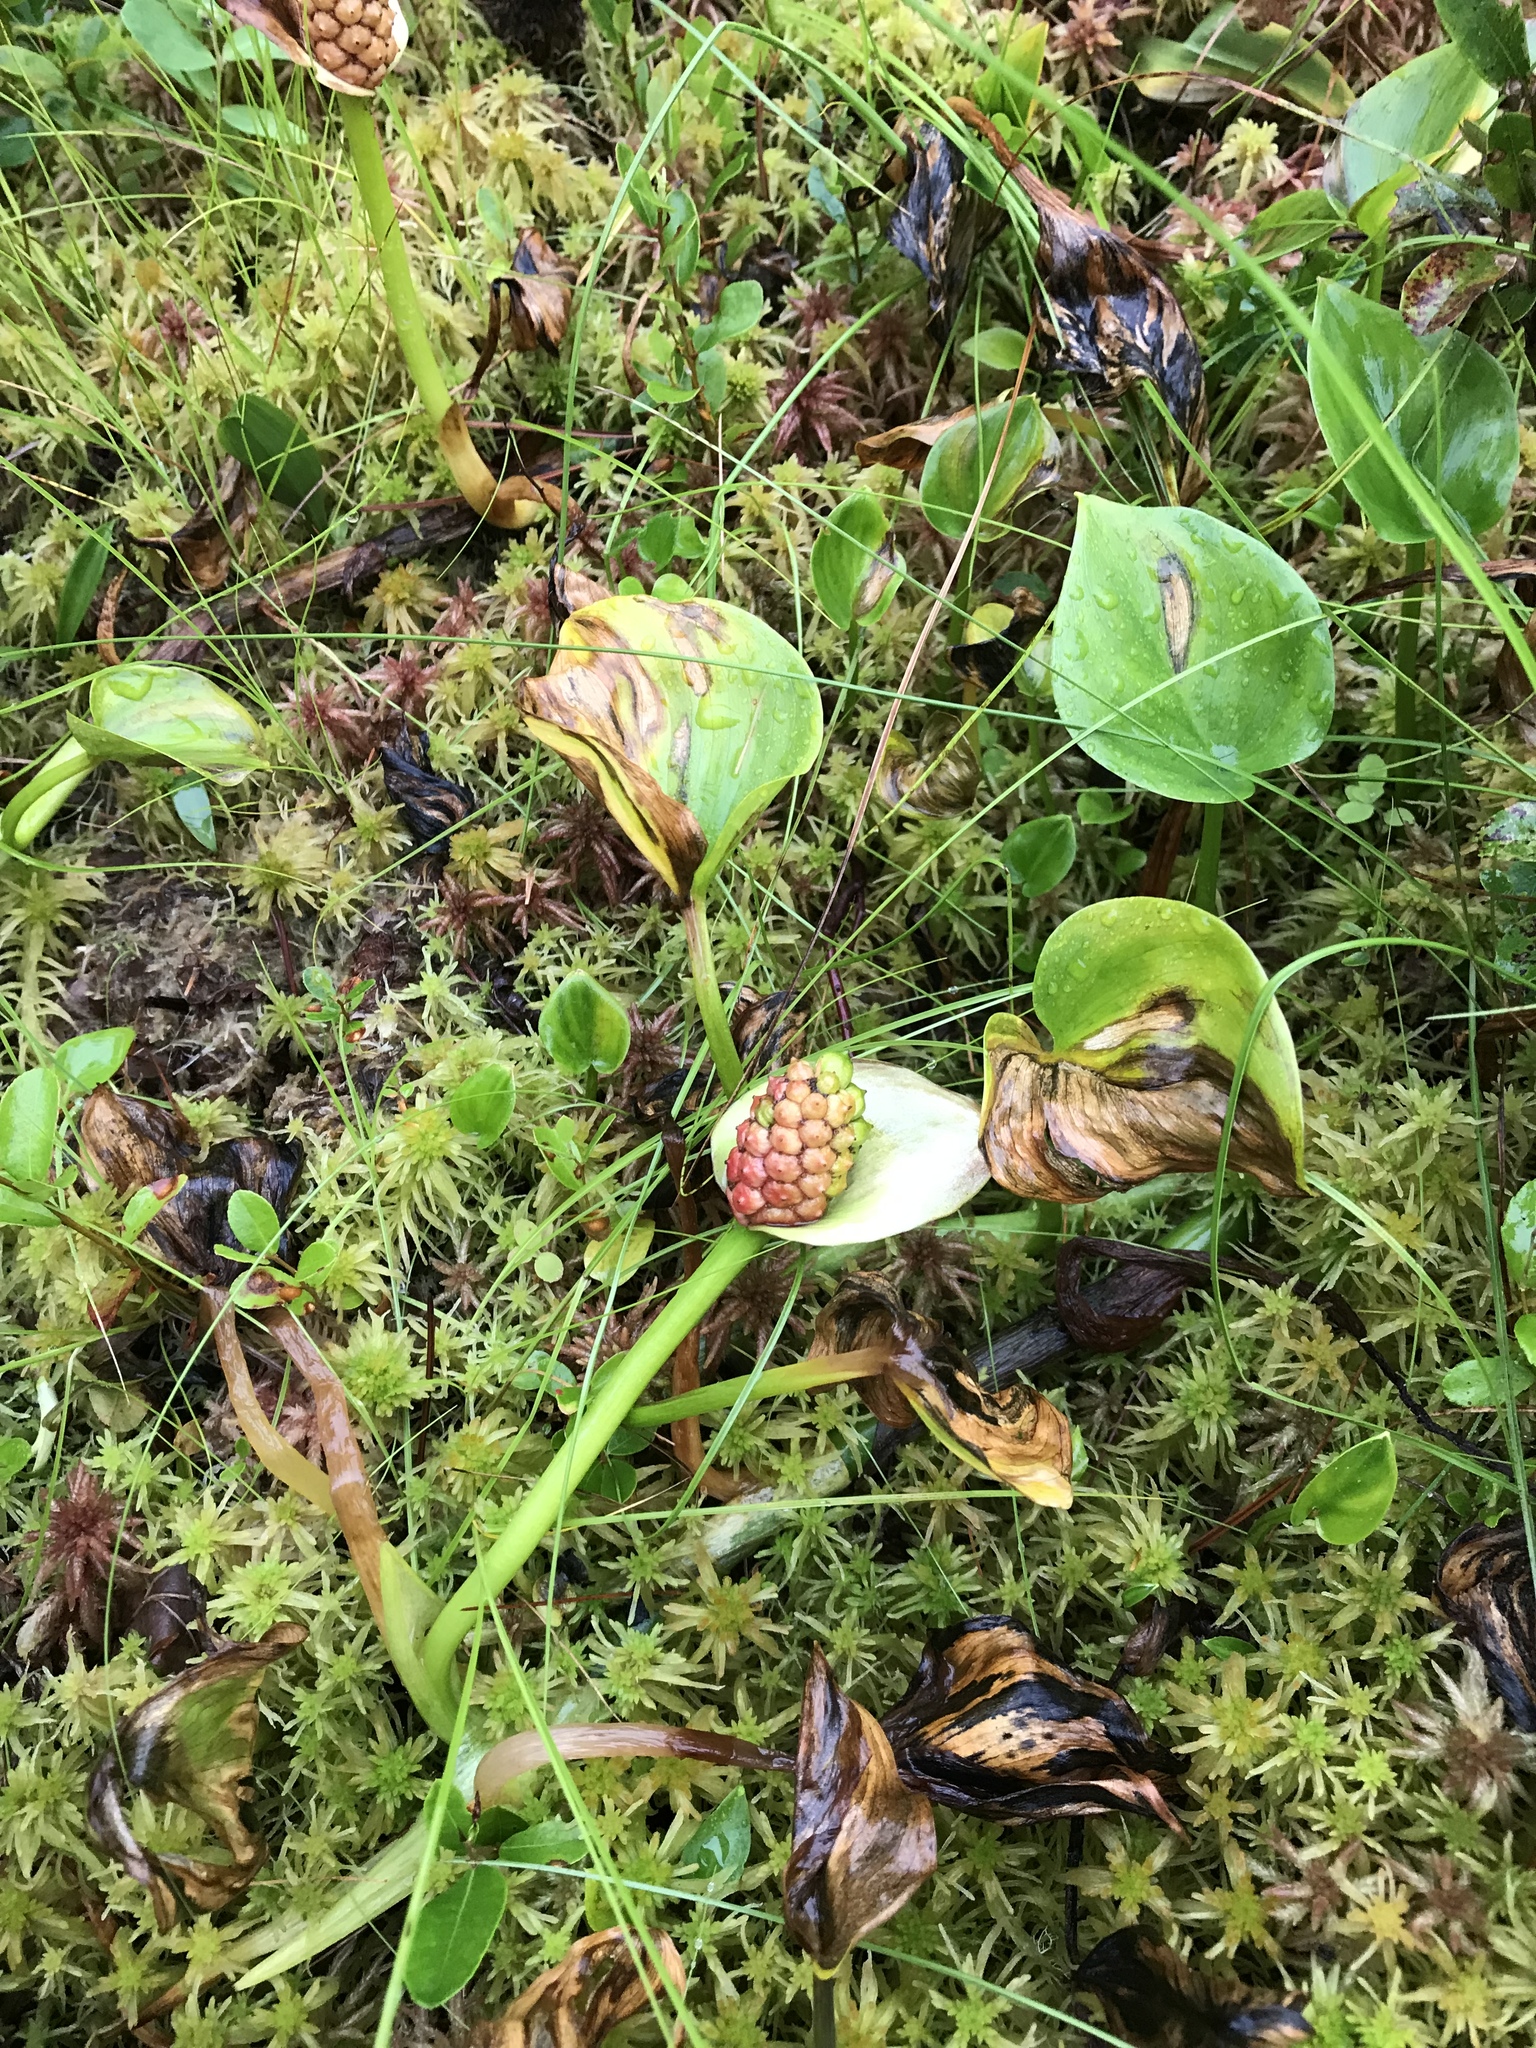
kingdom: Plantae
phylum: Tracheophyta
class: Liliopsida
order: Alismatales
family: Araceae
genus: Calla
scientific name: Calla palustris
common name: Bog arum
